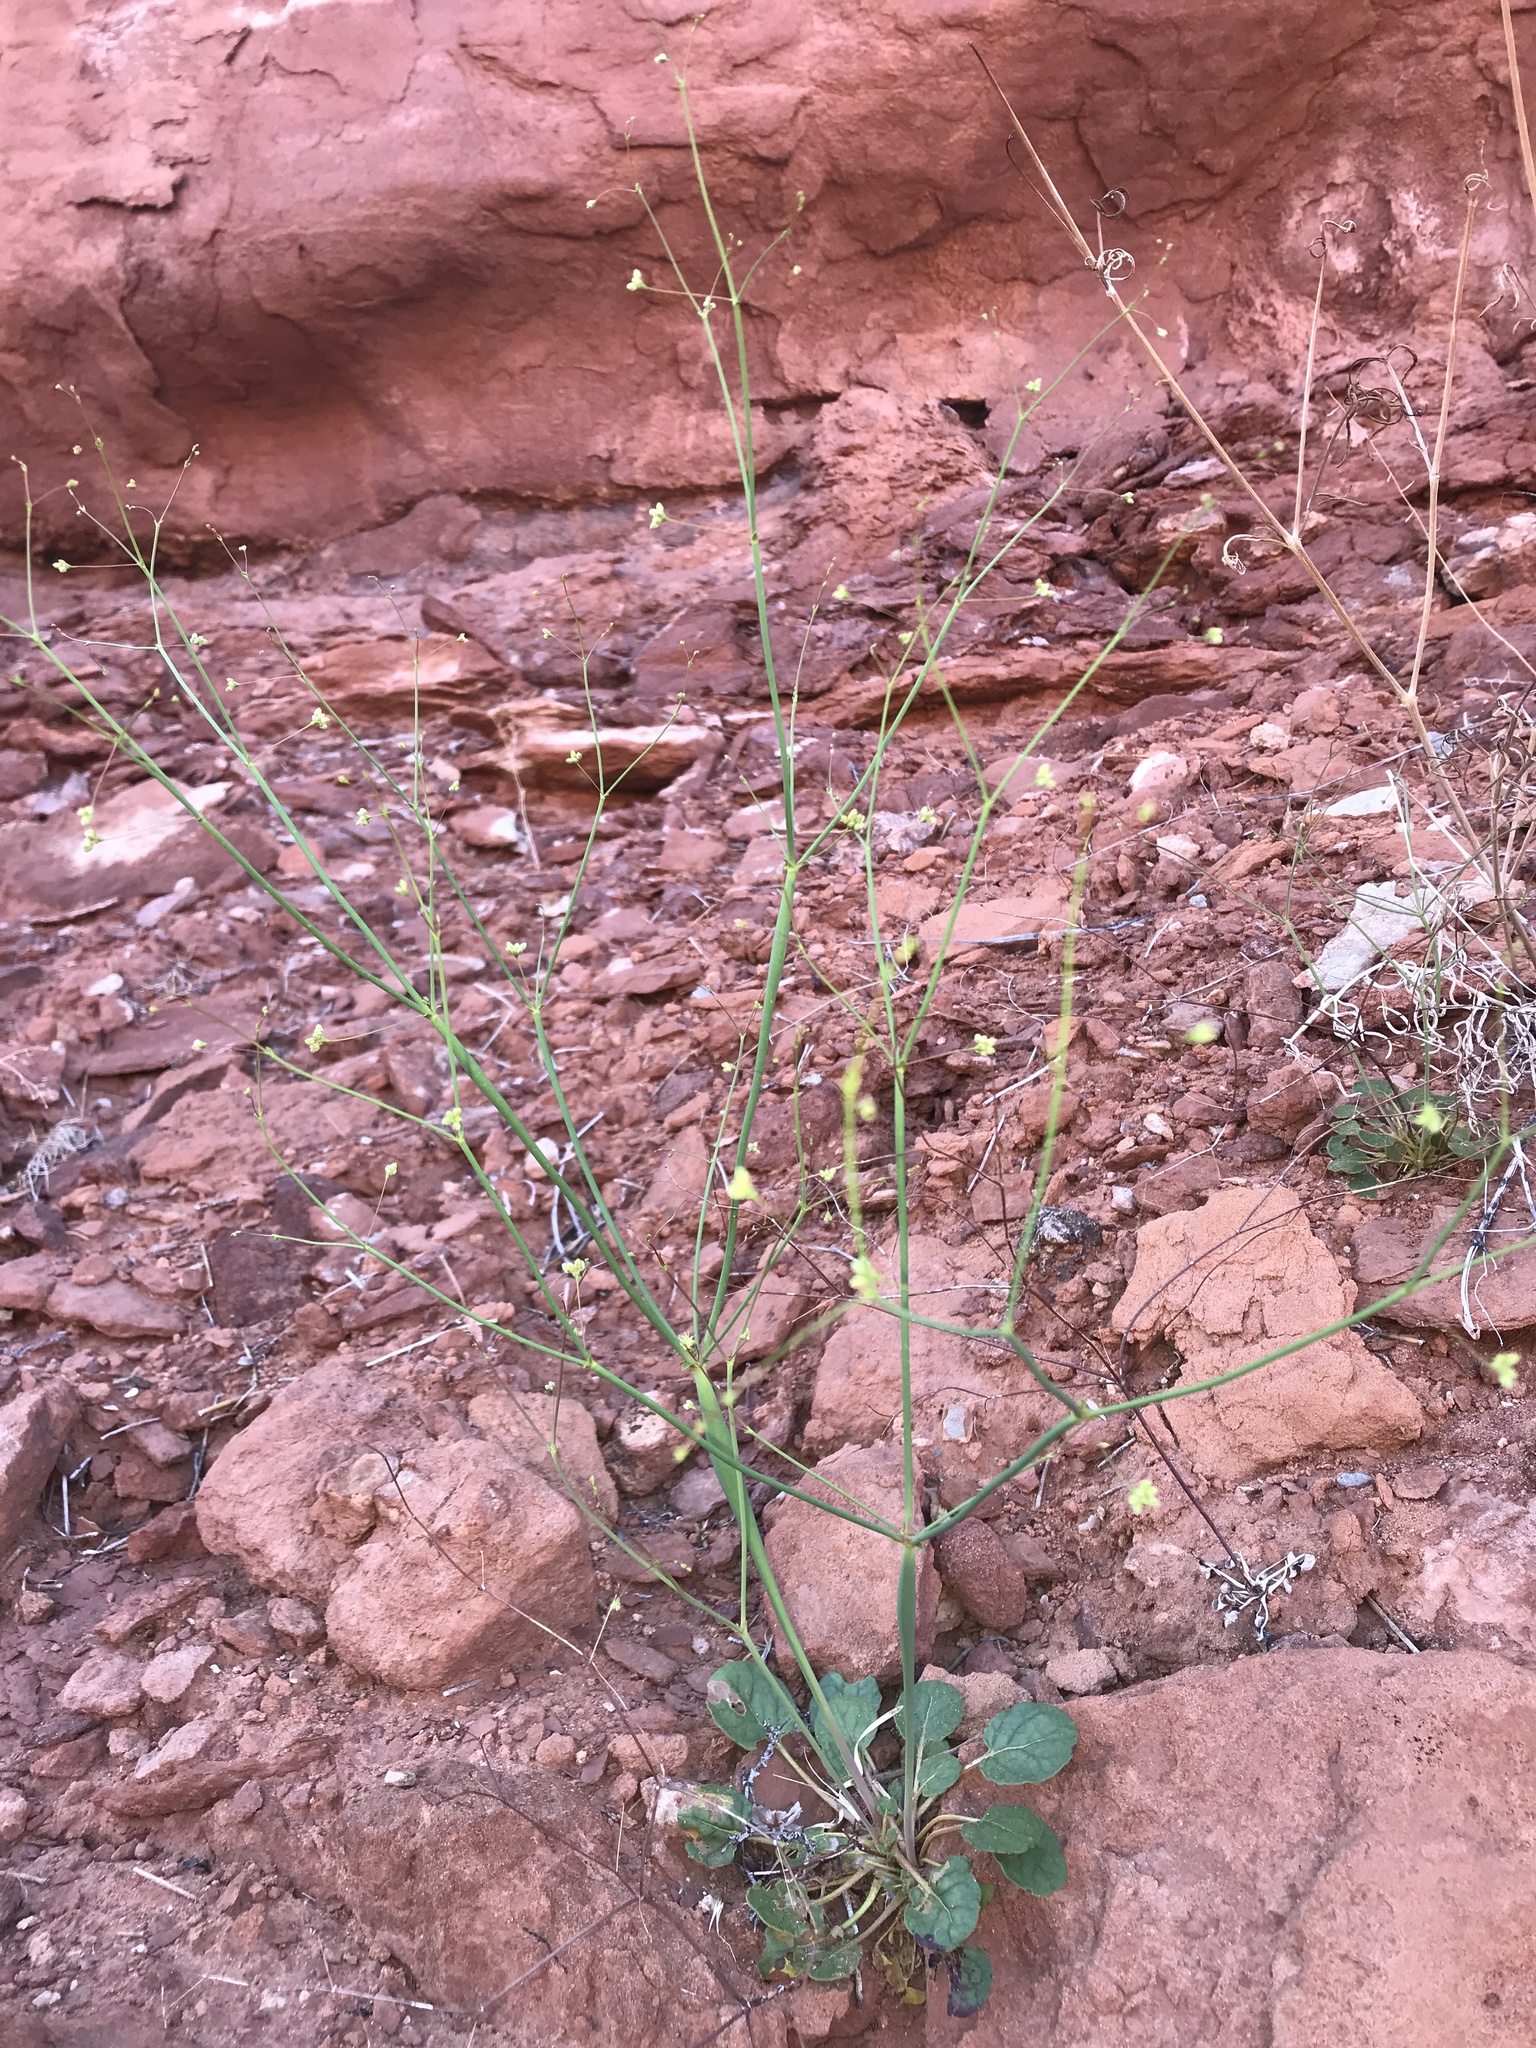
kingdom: Plantae
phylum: Tracheophyta
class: Magnoliopsida
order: Caryophyllales
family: Polygonaceae
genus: Eriogonum
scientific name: Eriogonum inflatum
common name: Desert trumpet
